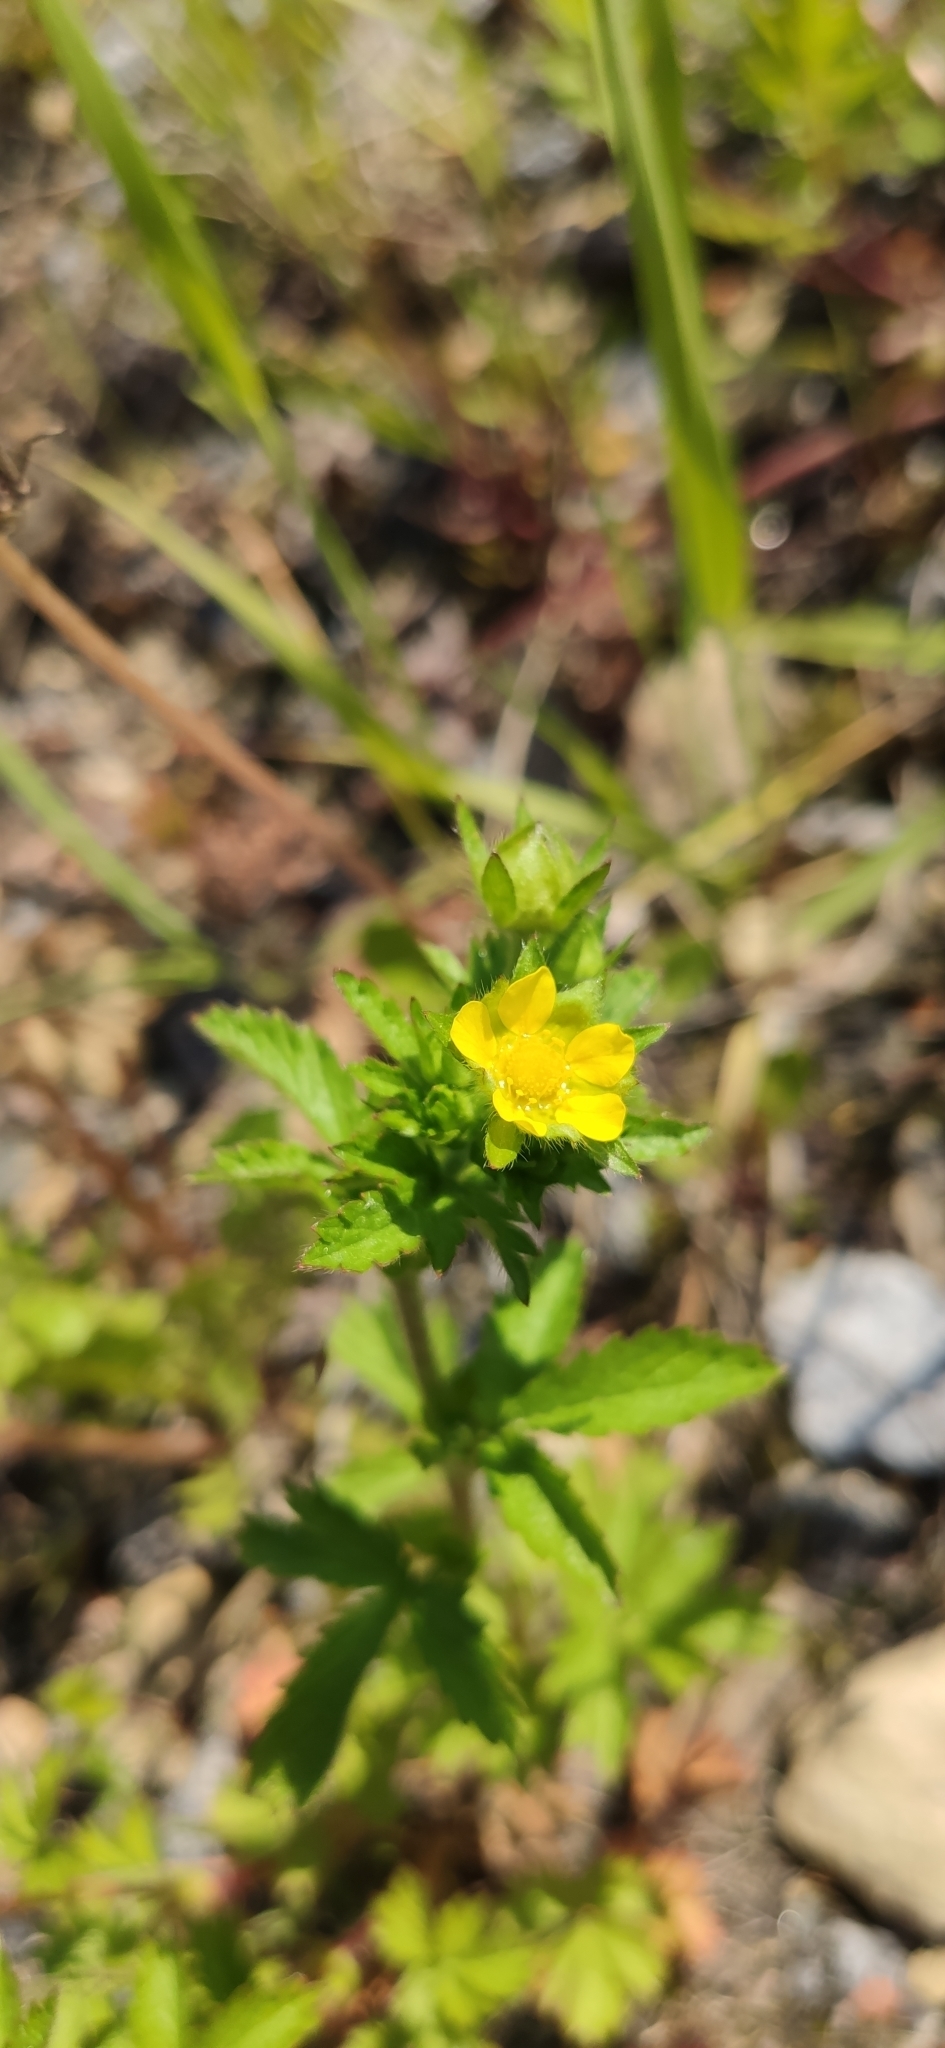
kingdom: Plantae
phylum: Tracheophyta
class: Magnoliopsida
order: Rosales
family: Rosaceae
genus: Potentilla
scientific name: Potentilla norvegica
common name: Ternate-leaved cinquefoil
